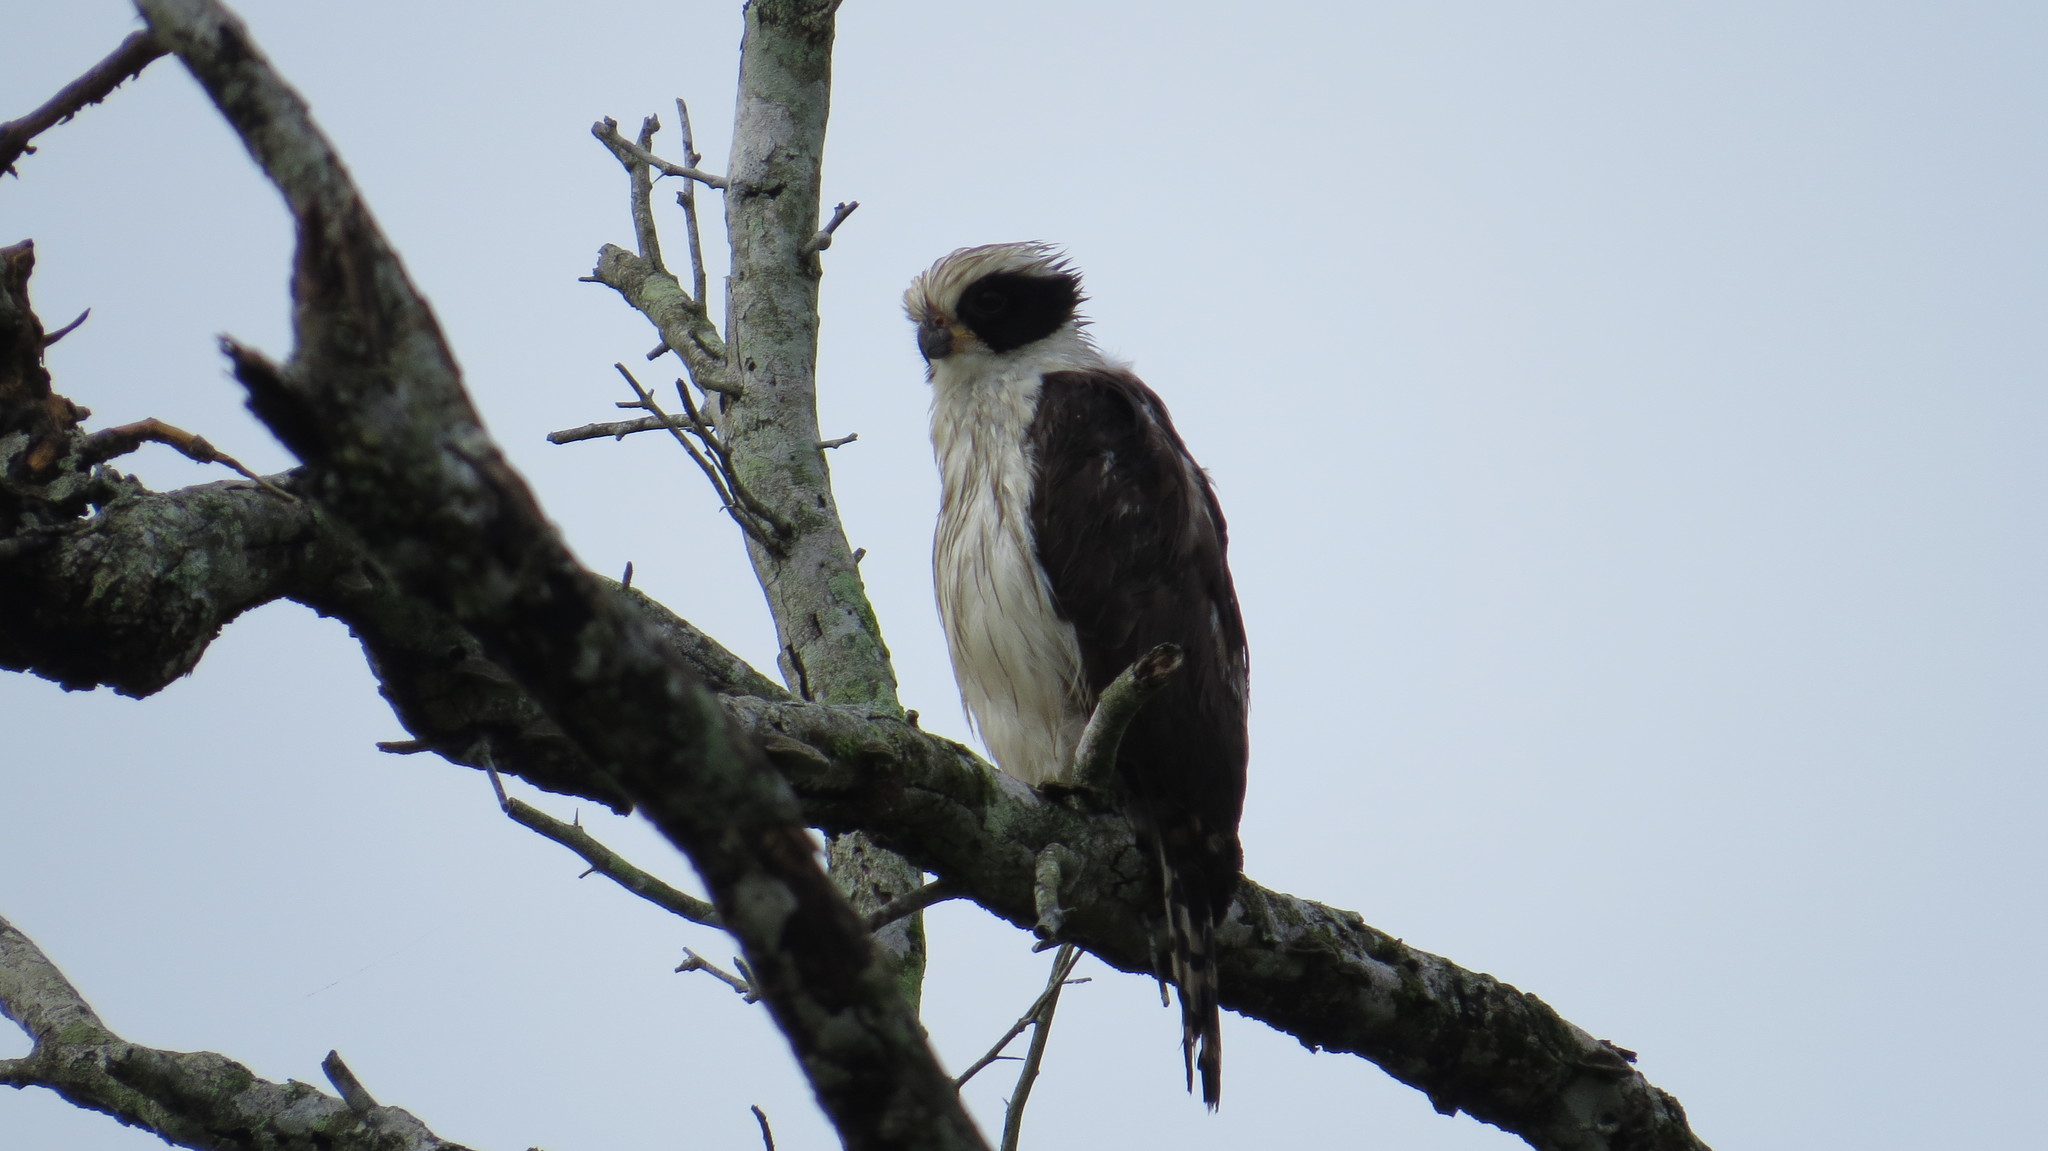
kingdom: Animalia
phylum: Chordata
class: Aves
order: Falconiformes
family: Falconidae
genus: Herpetotheres
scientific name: Herpetotheres cachinnans
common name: Laughing falcon
